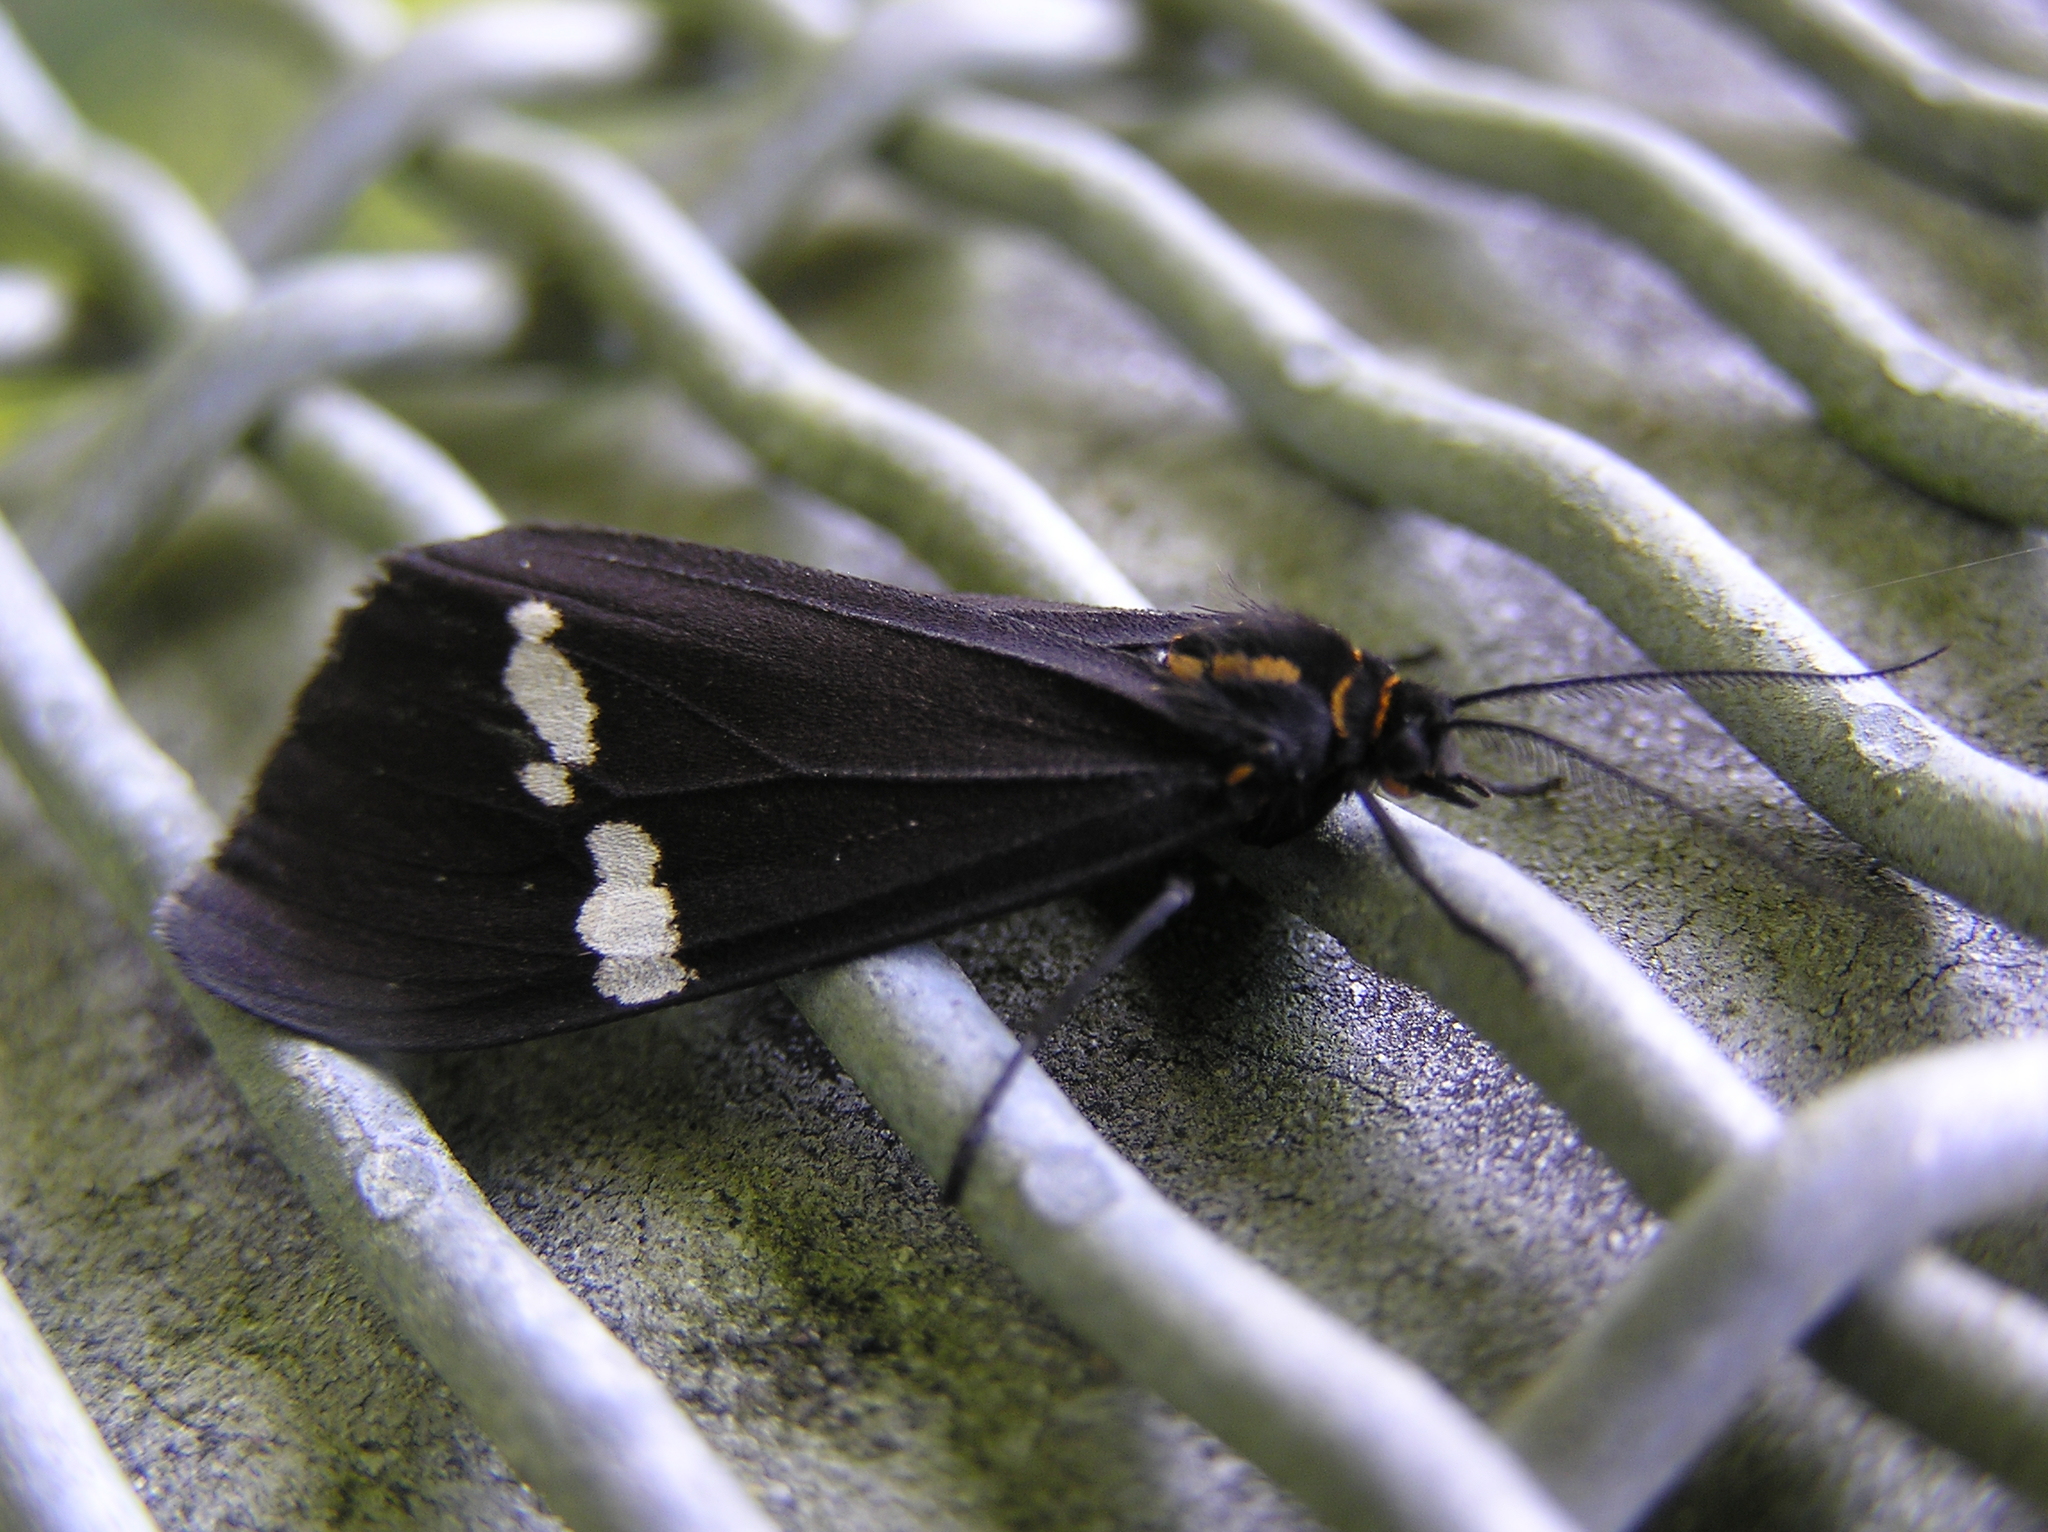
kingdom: Animalia
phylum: Arthropoda
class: Insecta
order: Lepidoptera
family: Erebidae
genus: Nyctemera
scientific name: Nyctemera annulatum
